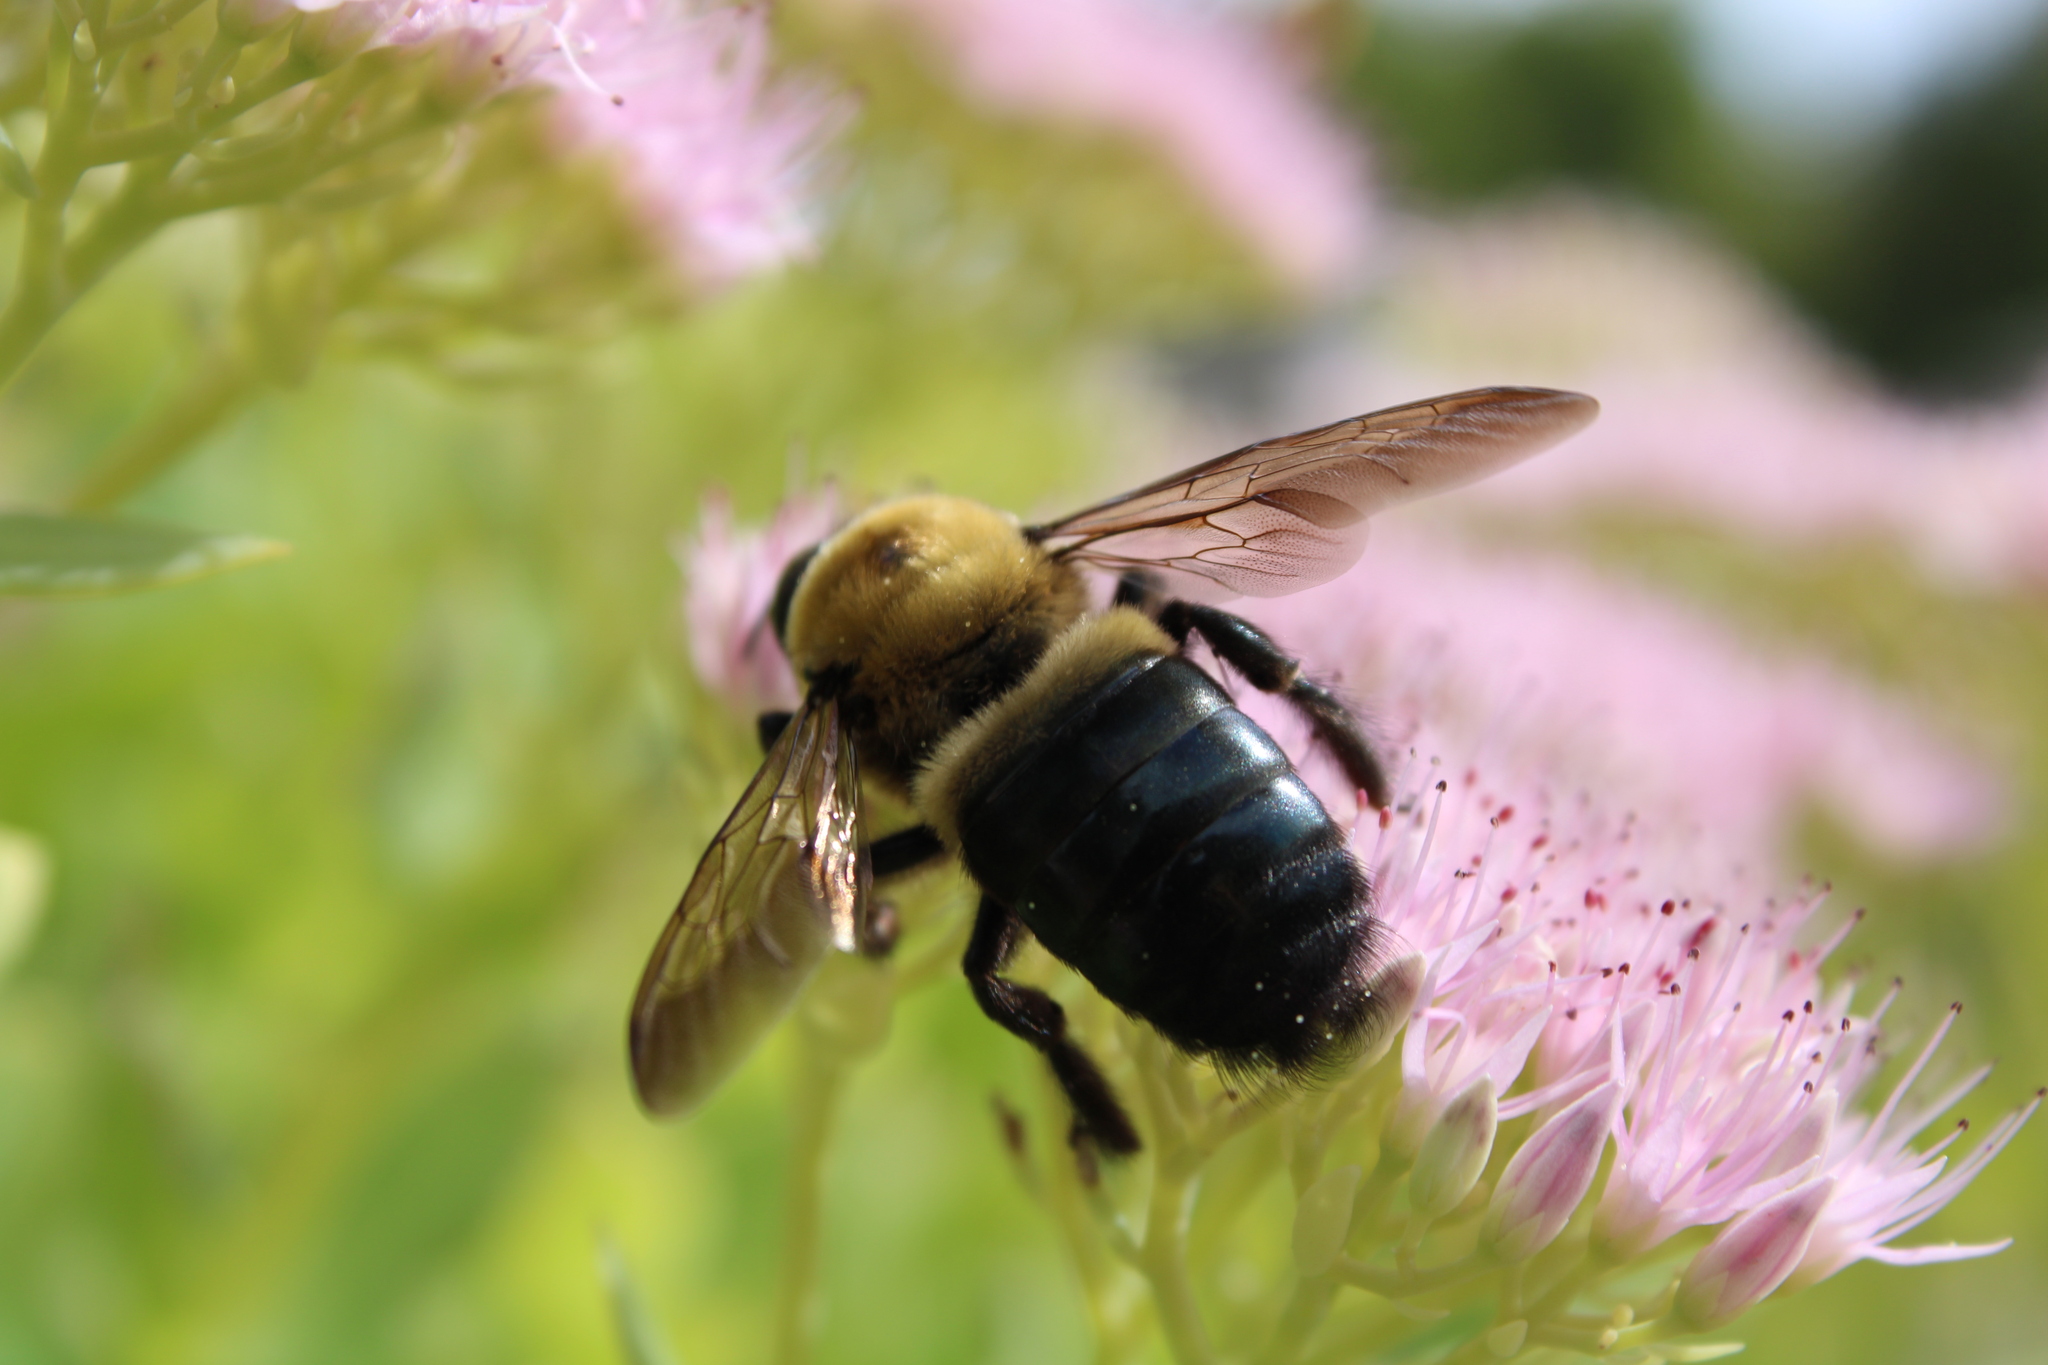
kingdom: Animalia
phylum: Arthropoda
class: Insecta
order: Hymenoptera
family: Apidae
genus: Xylocopa
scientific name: Xylocopa virginica
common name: Carpenter bee
